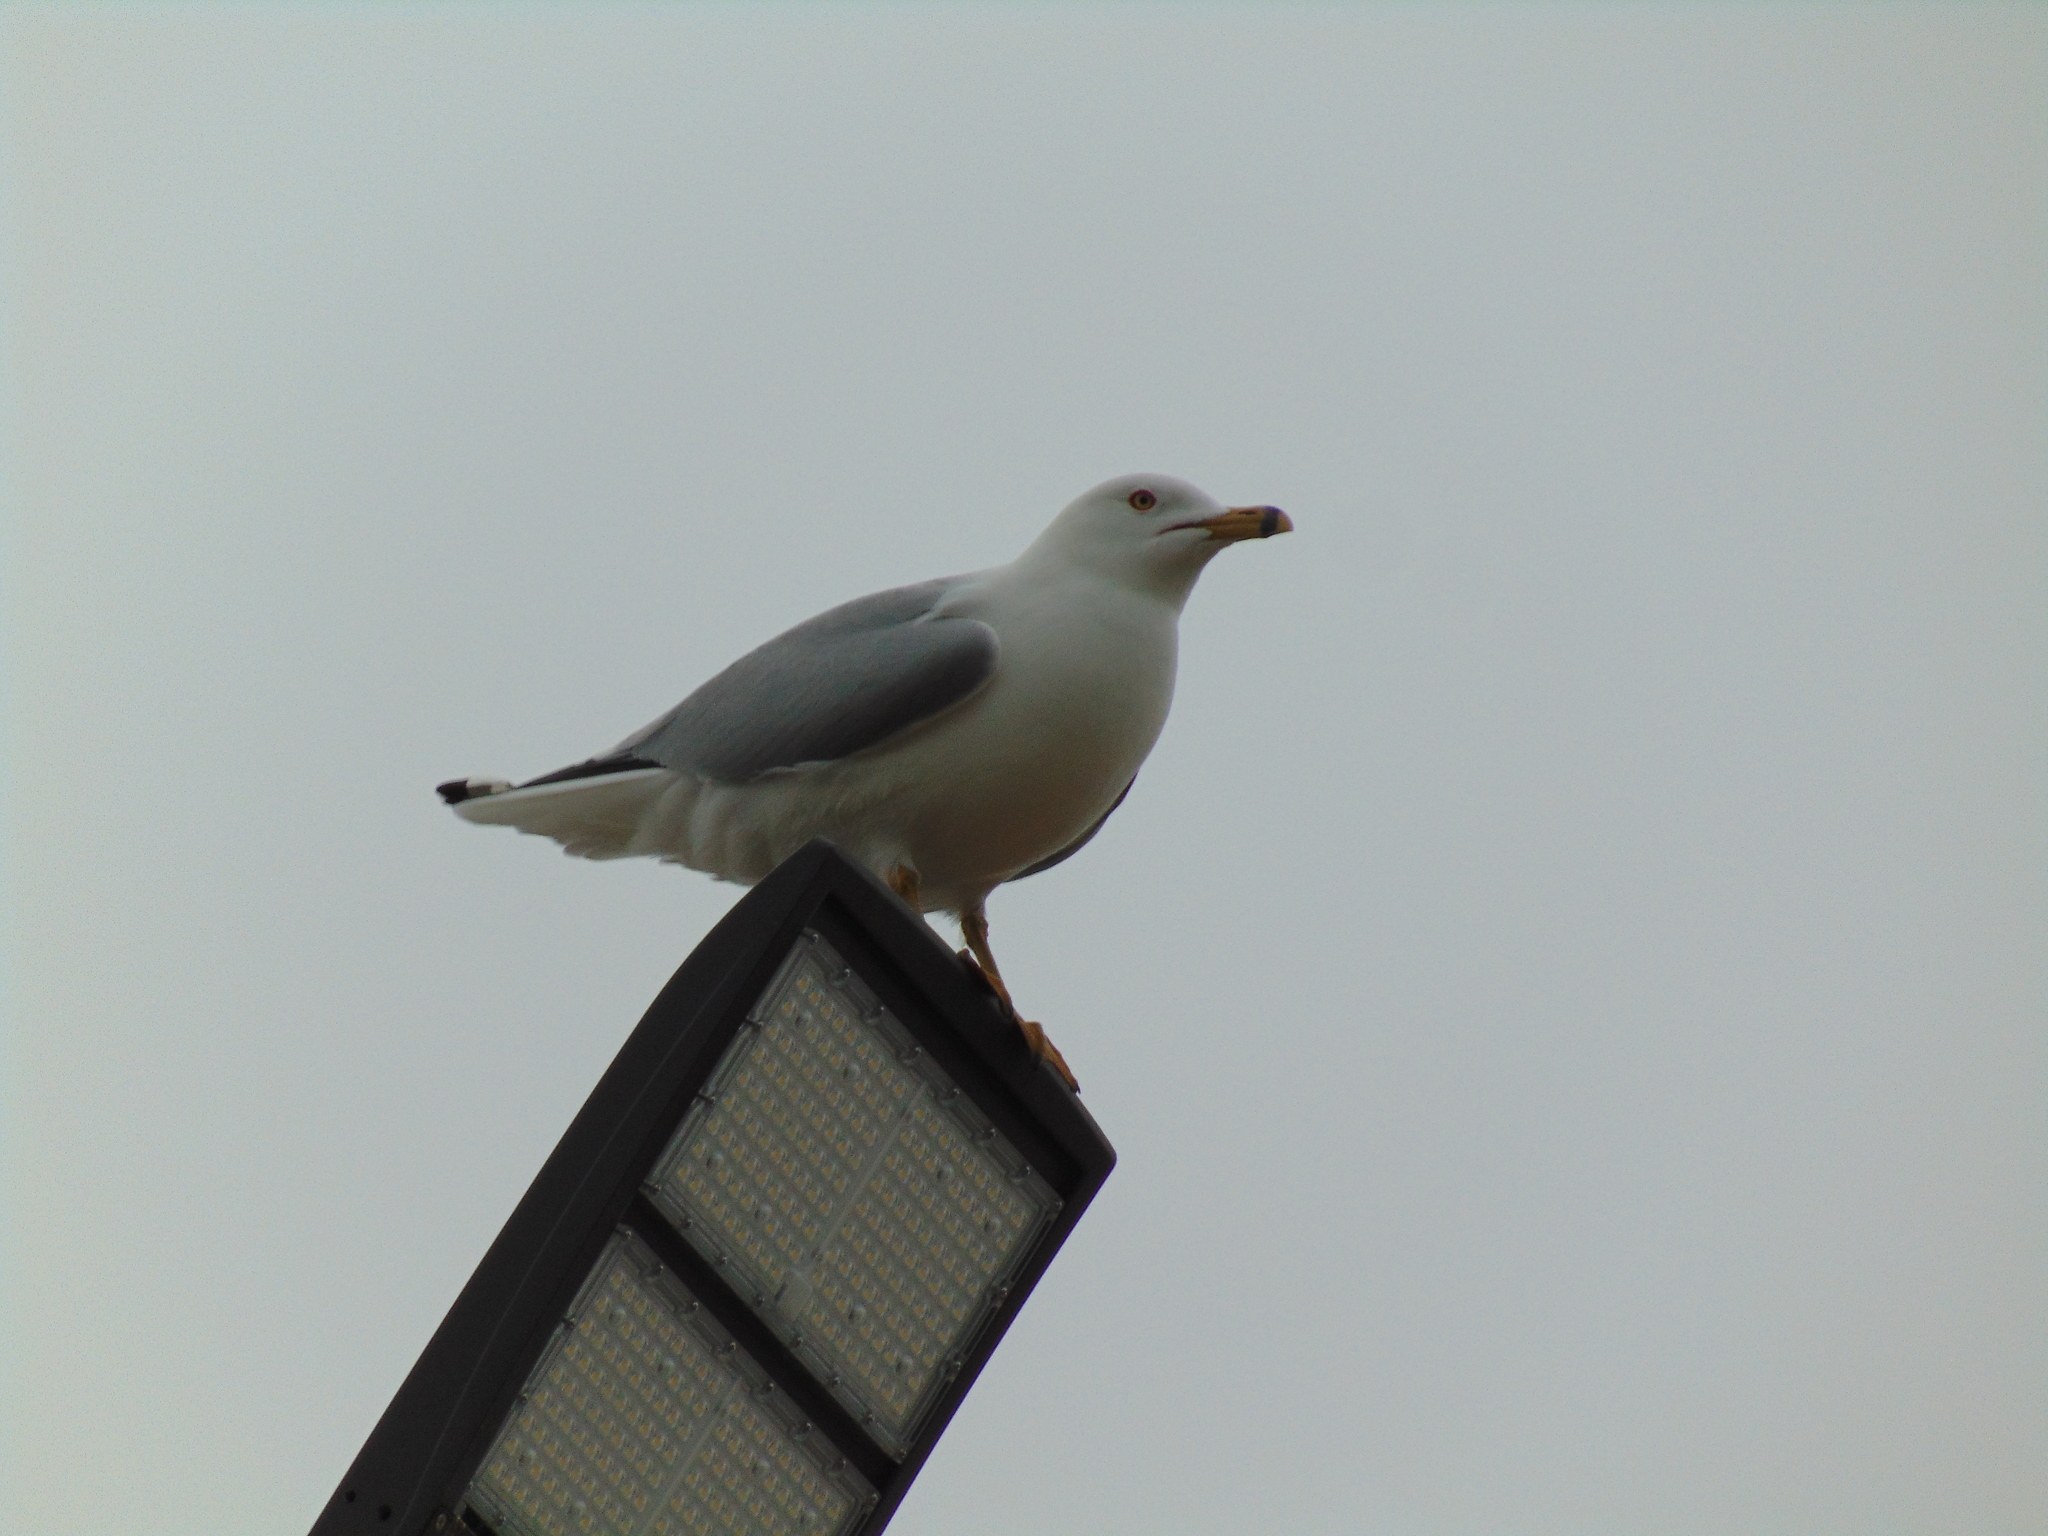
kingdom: Animalia
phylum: Chordata
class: Aves
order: Charadriiformes
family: Laridae
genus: Larus
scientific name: Larus delawarensis
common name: Ring-billed gull
